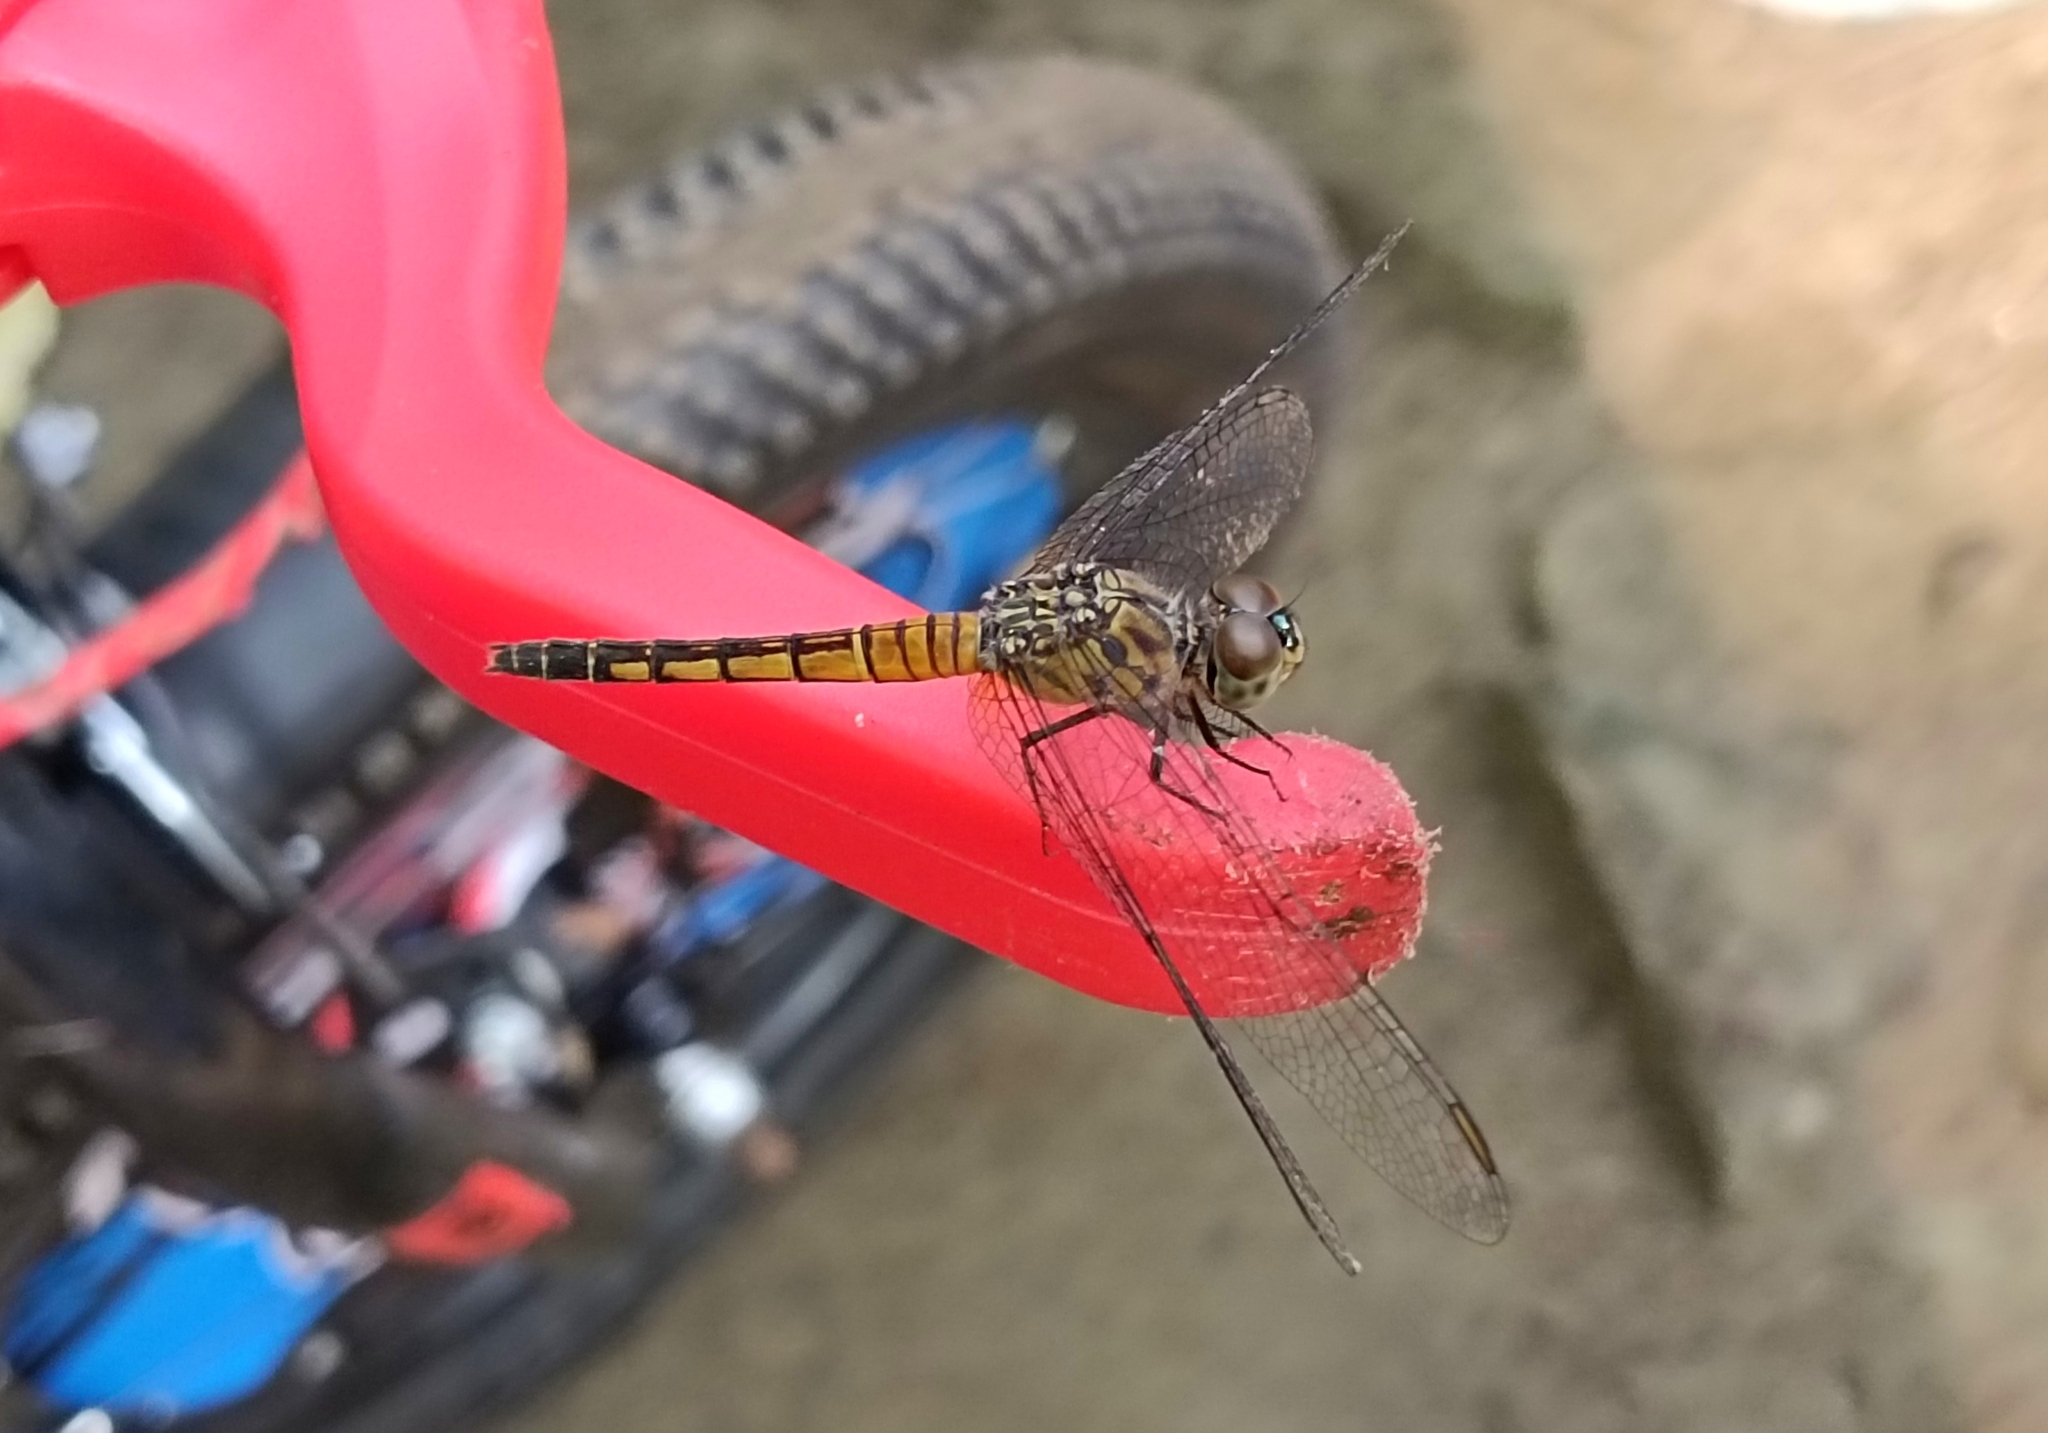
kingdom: Animalia
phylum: Arthropoda
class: Insecta
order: Odonata
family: Libellulidae
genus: Brachydiplax
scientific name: Brachydiplax chalybea
